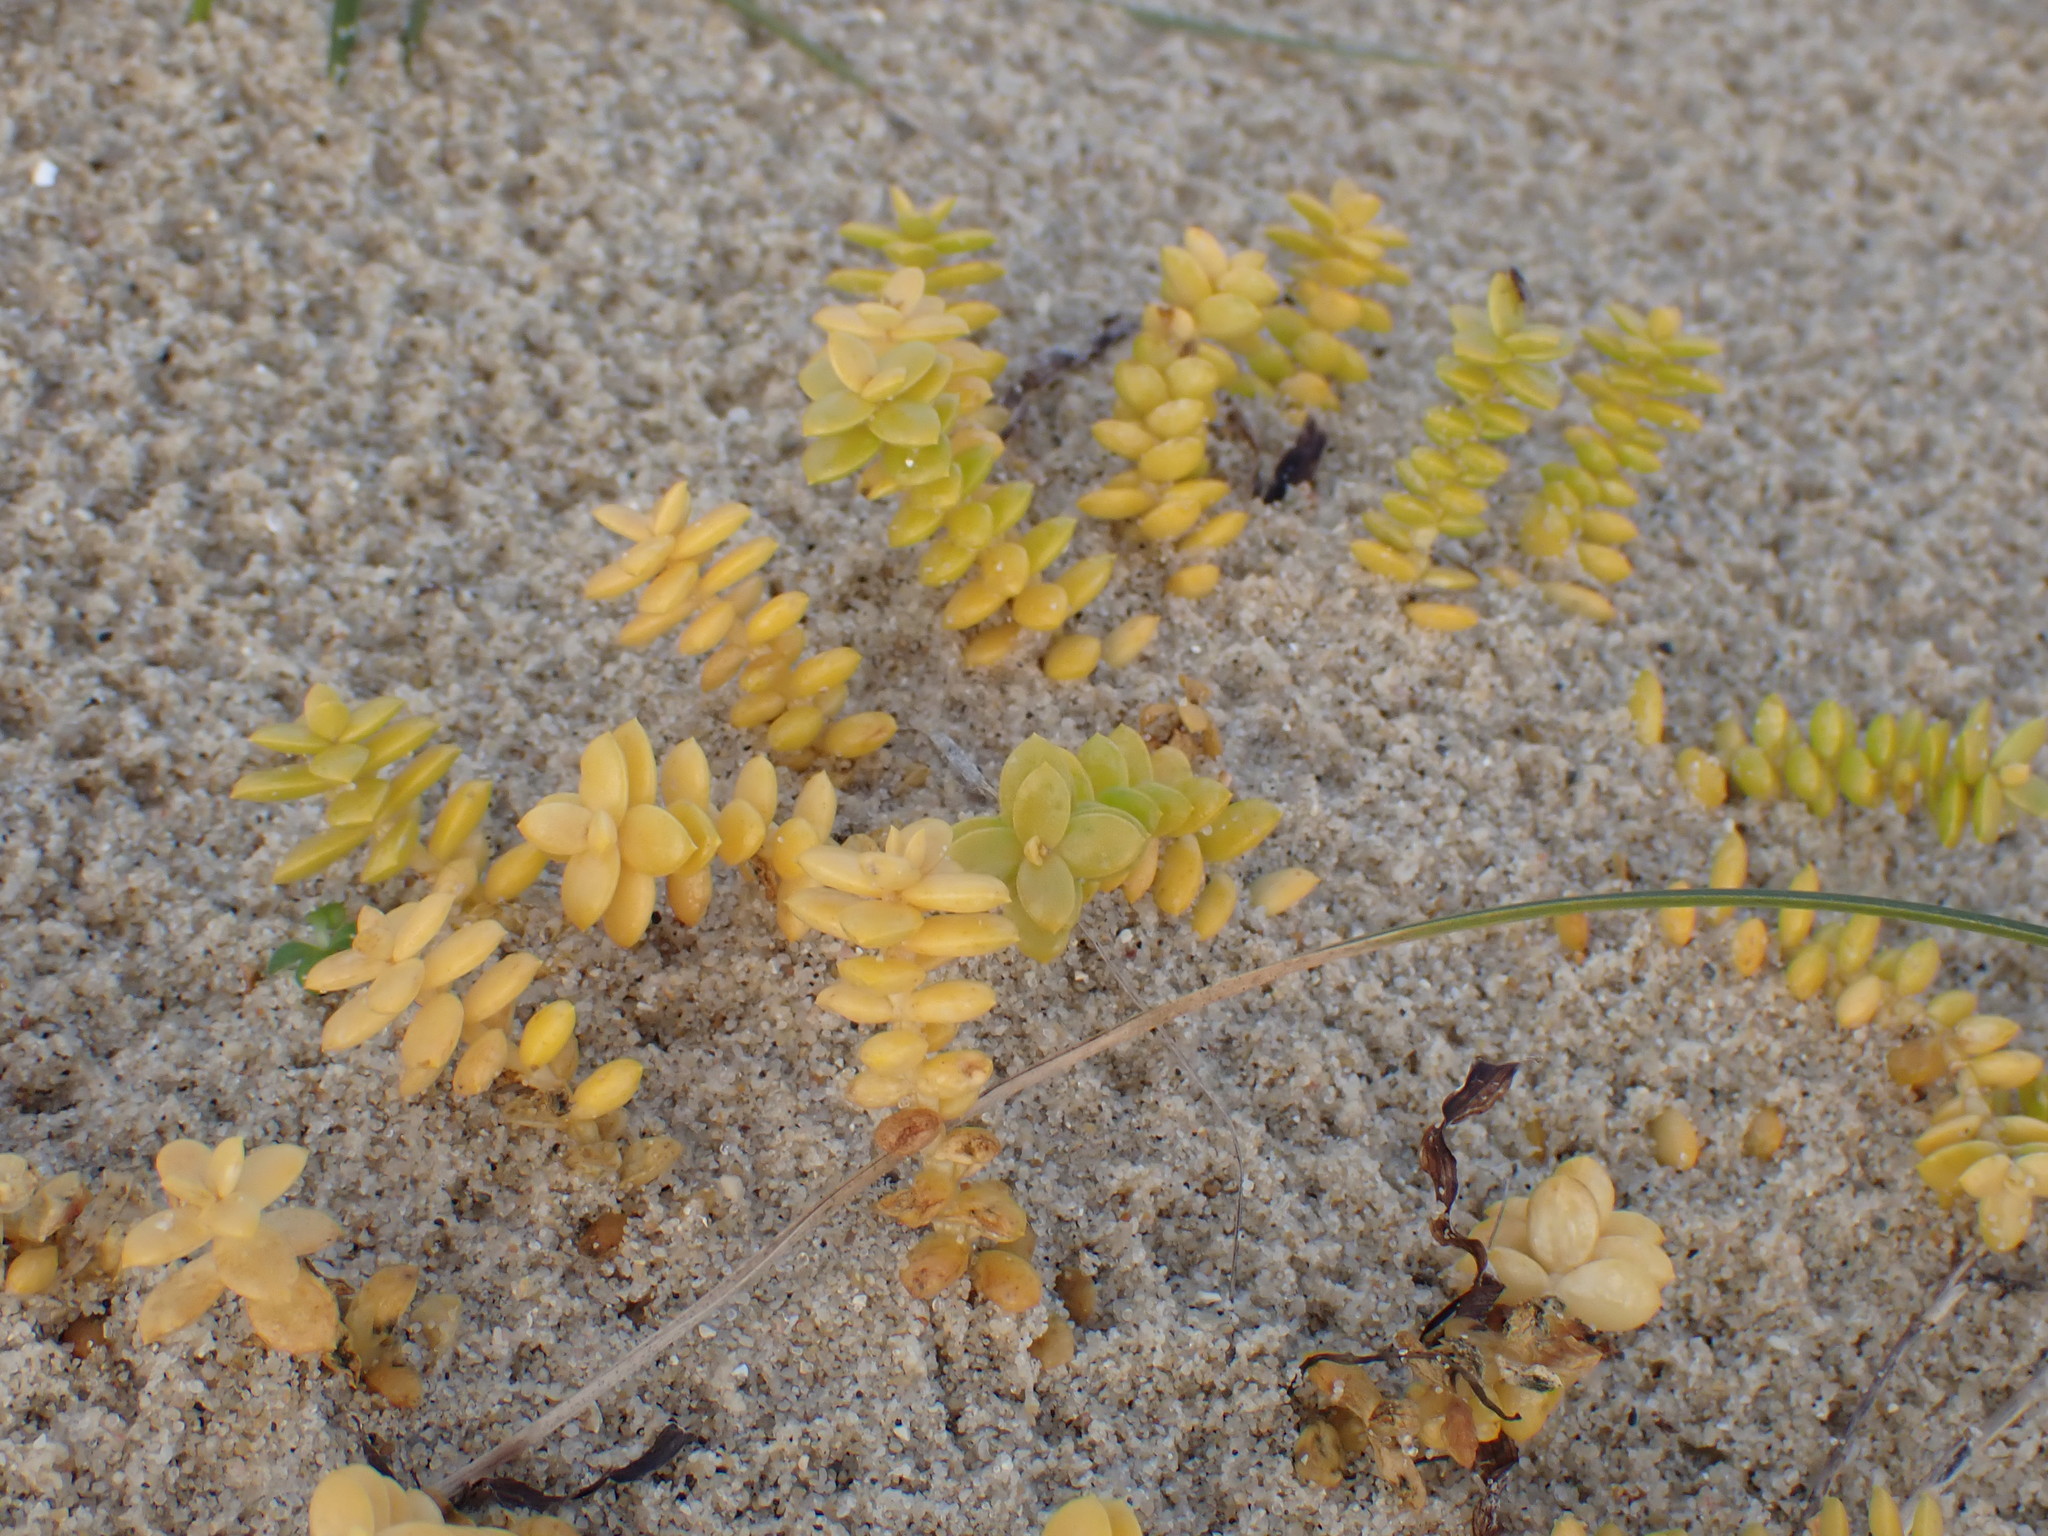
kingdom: Plantae
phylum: Tracheophyta
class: Magnoliopsida
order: Caryophyllales
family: Caryophyllaceae
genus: Honckenya
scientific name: Honckenya peploides
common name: Sea sandwort
